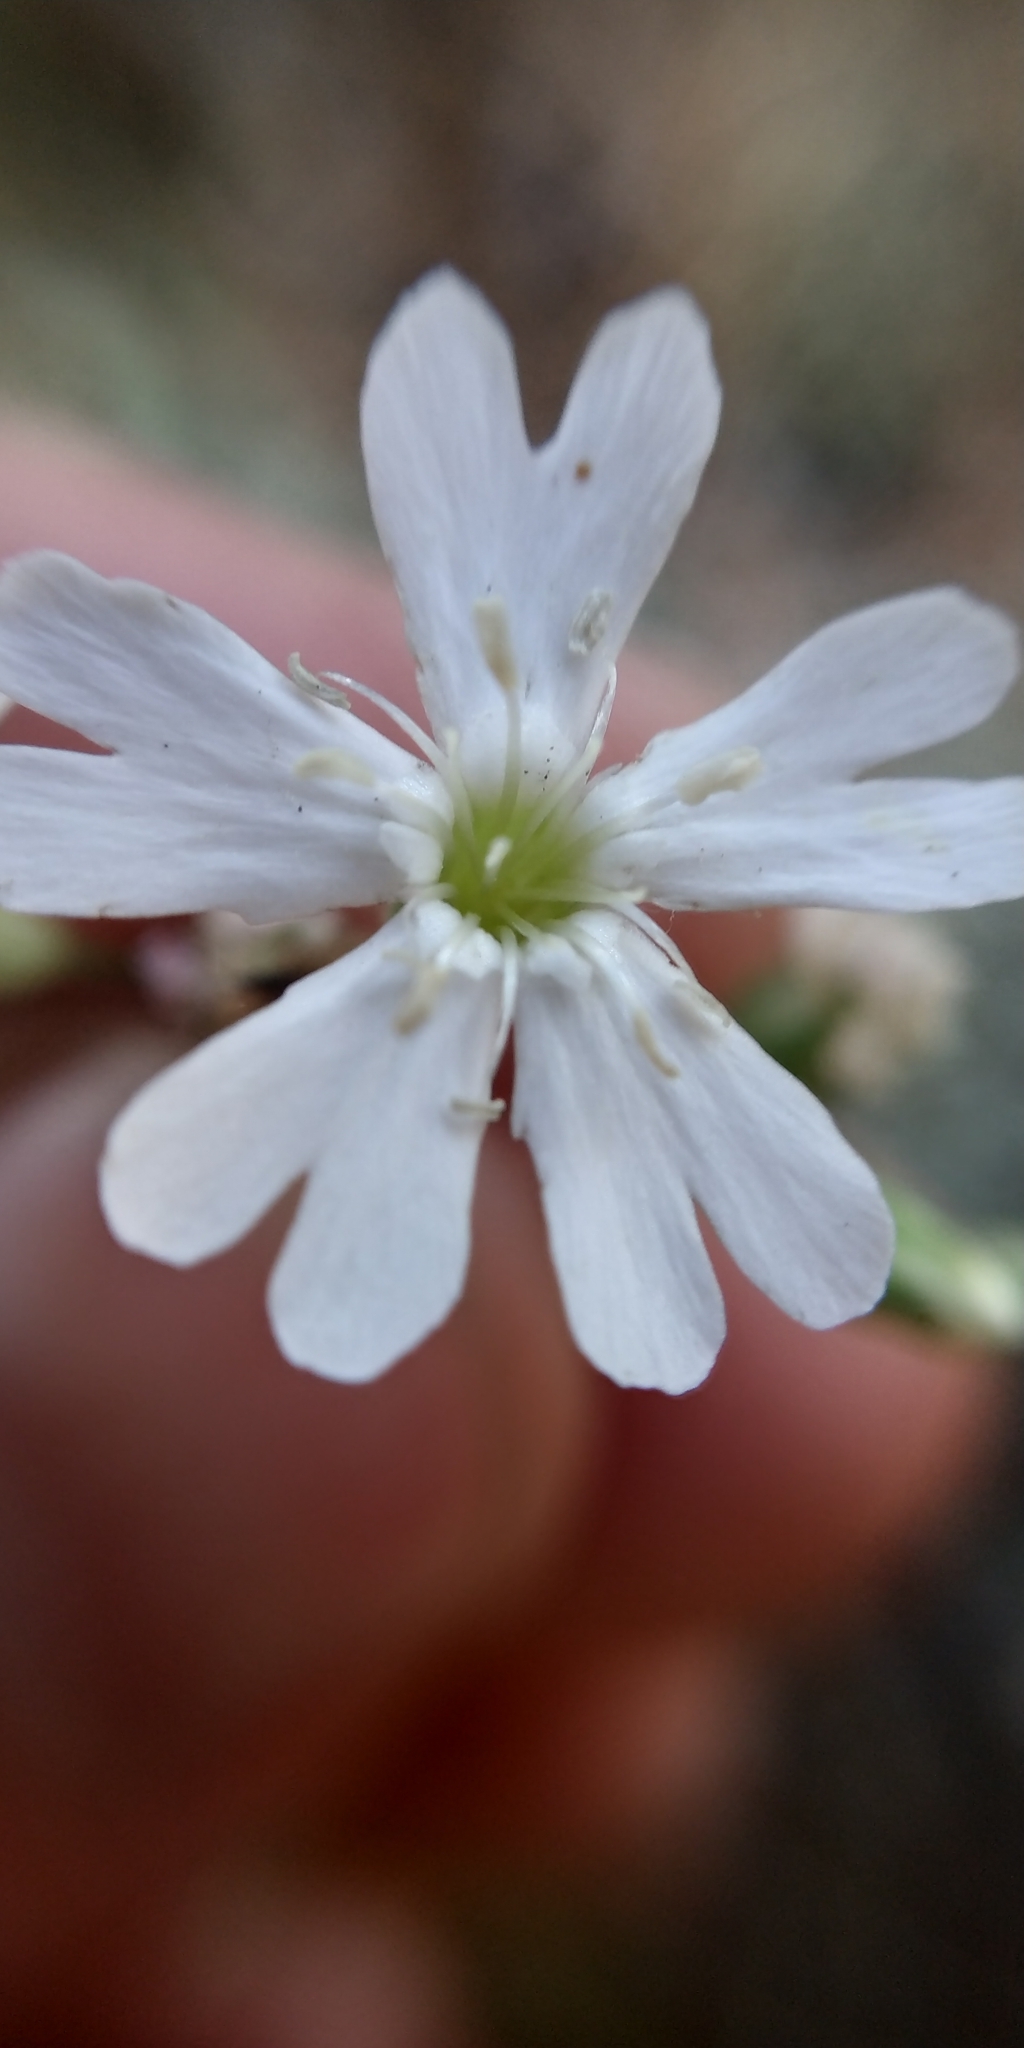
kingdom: Plantae
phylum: Tracheophyta
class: Magnoliopsida
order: Caryophyllales
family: Caryophyllaceae
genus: Silene
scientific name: Silene orientalimongolica
